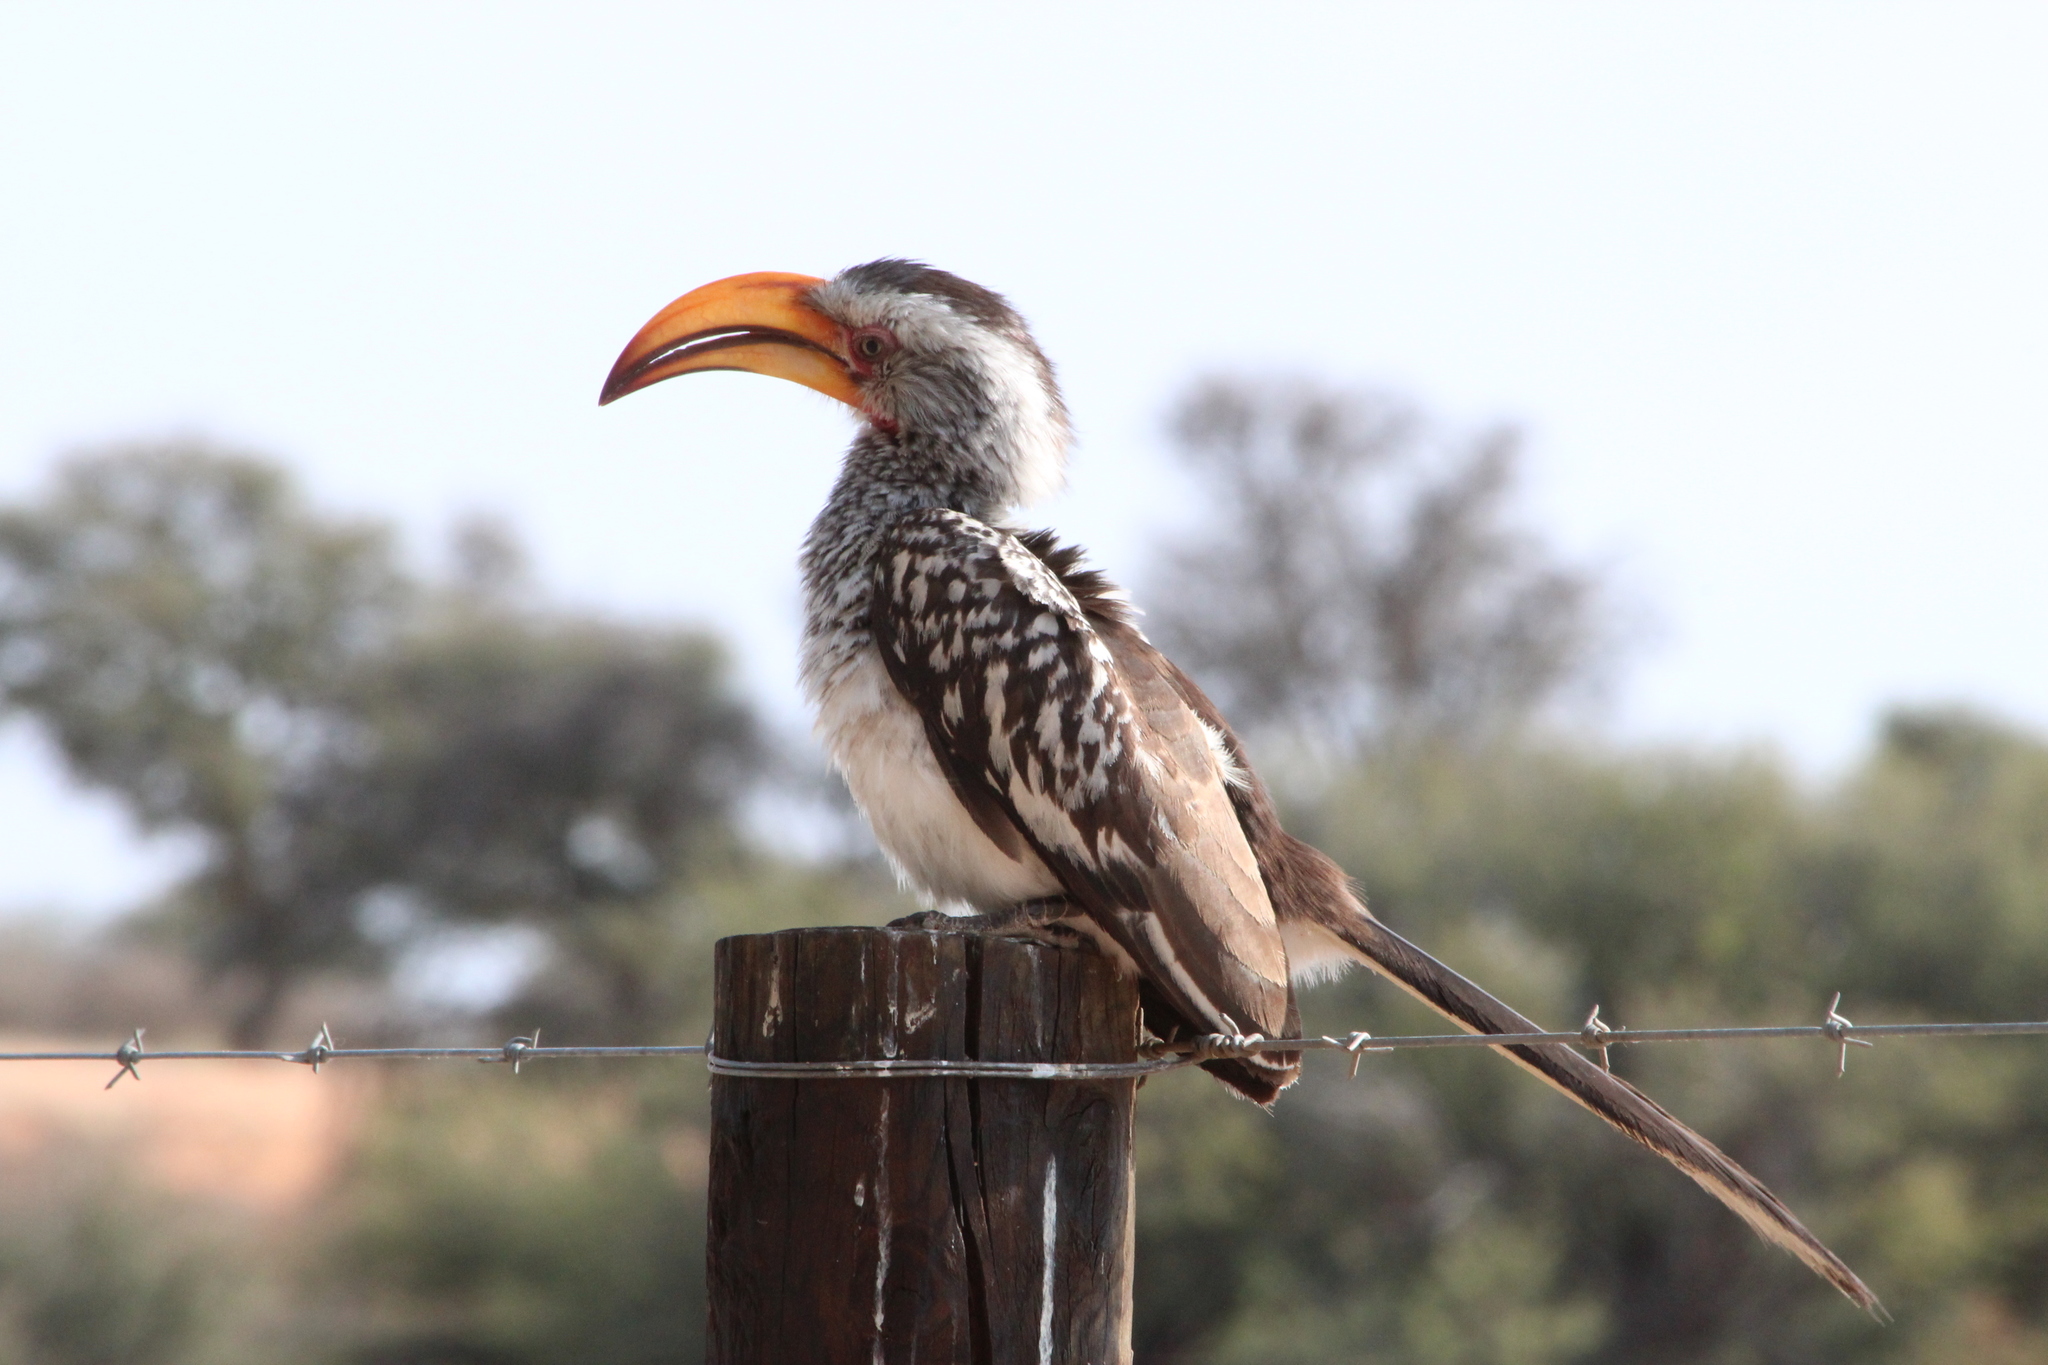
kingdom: Animalia
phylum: Chordata
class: Aves
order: Bucerotiformes
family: Bucerotidae
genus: Tockus
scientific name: Tockus leucomelas
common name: Southern yellow-billed hornbill
